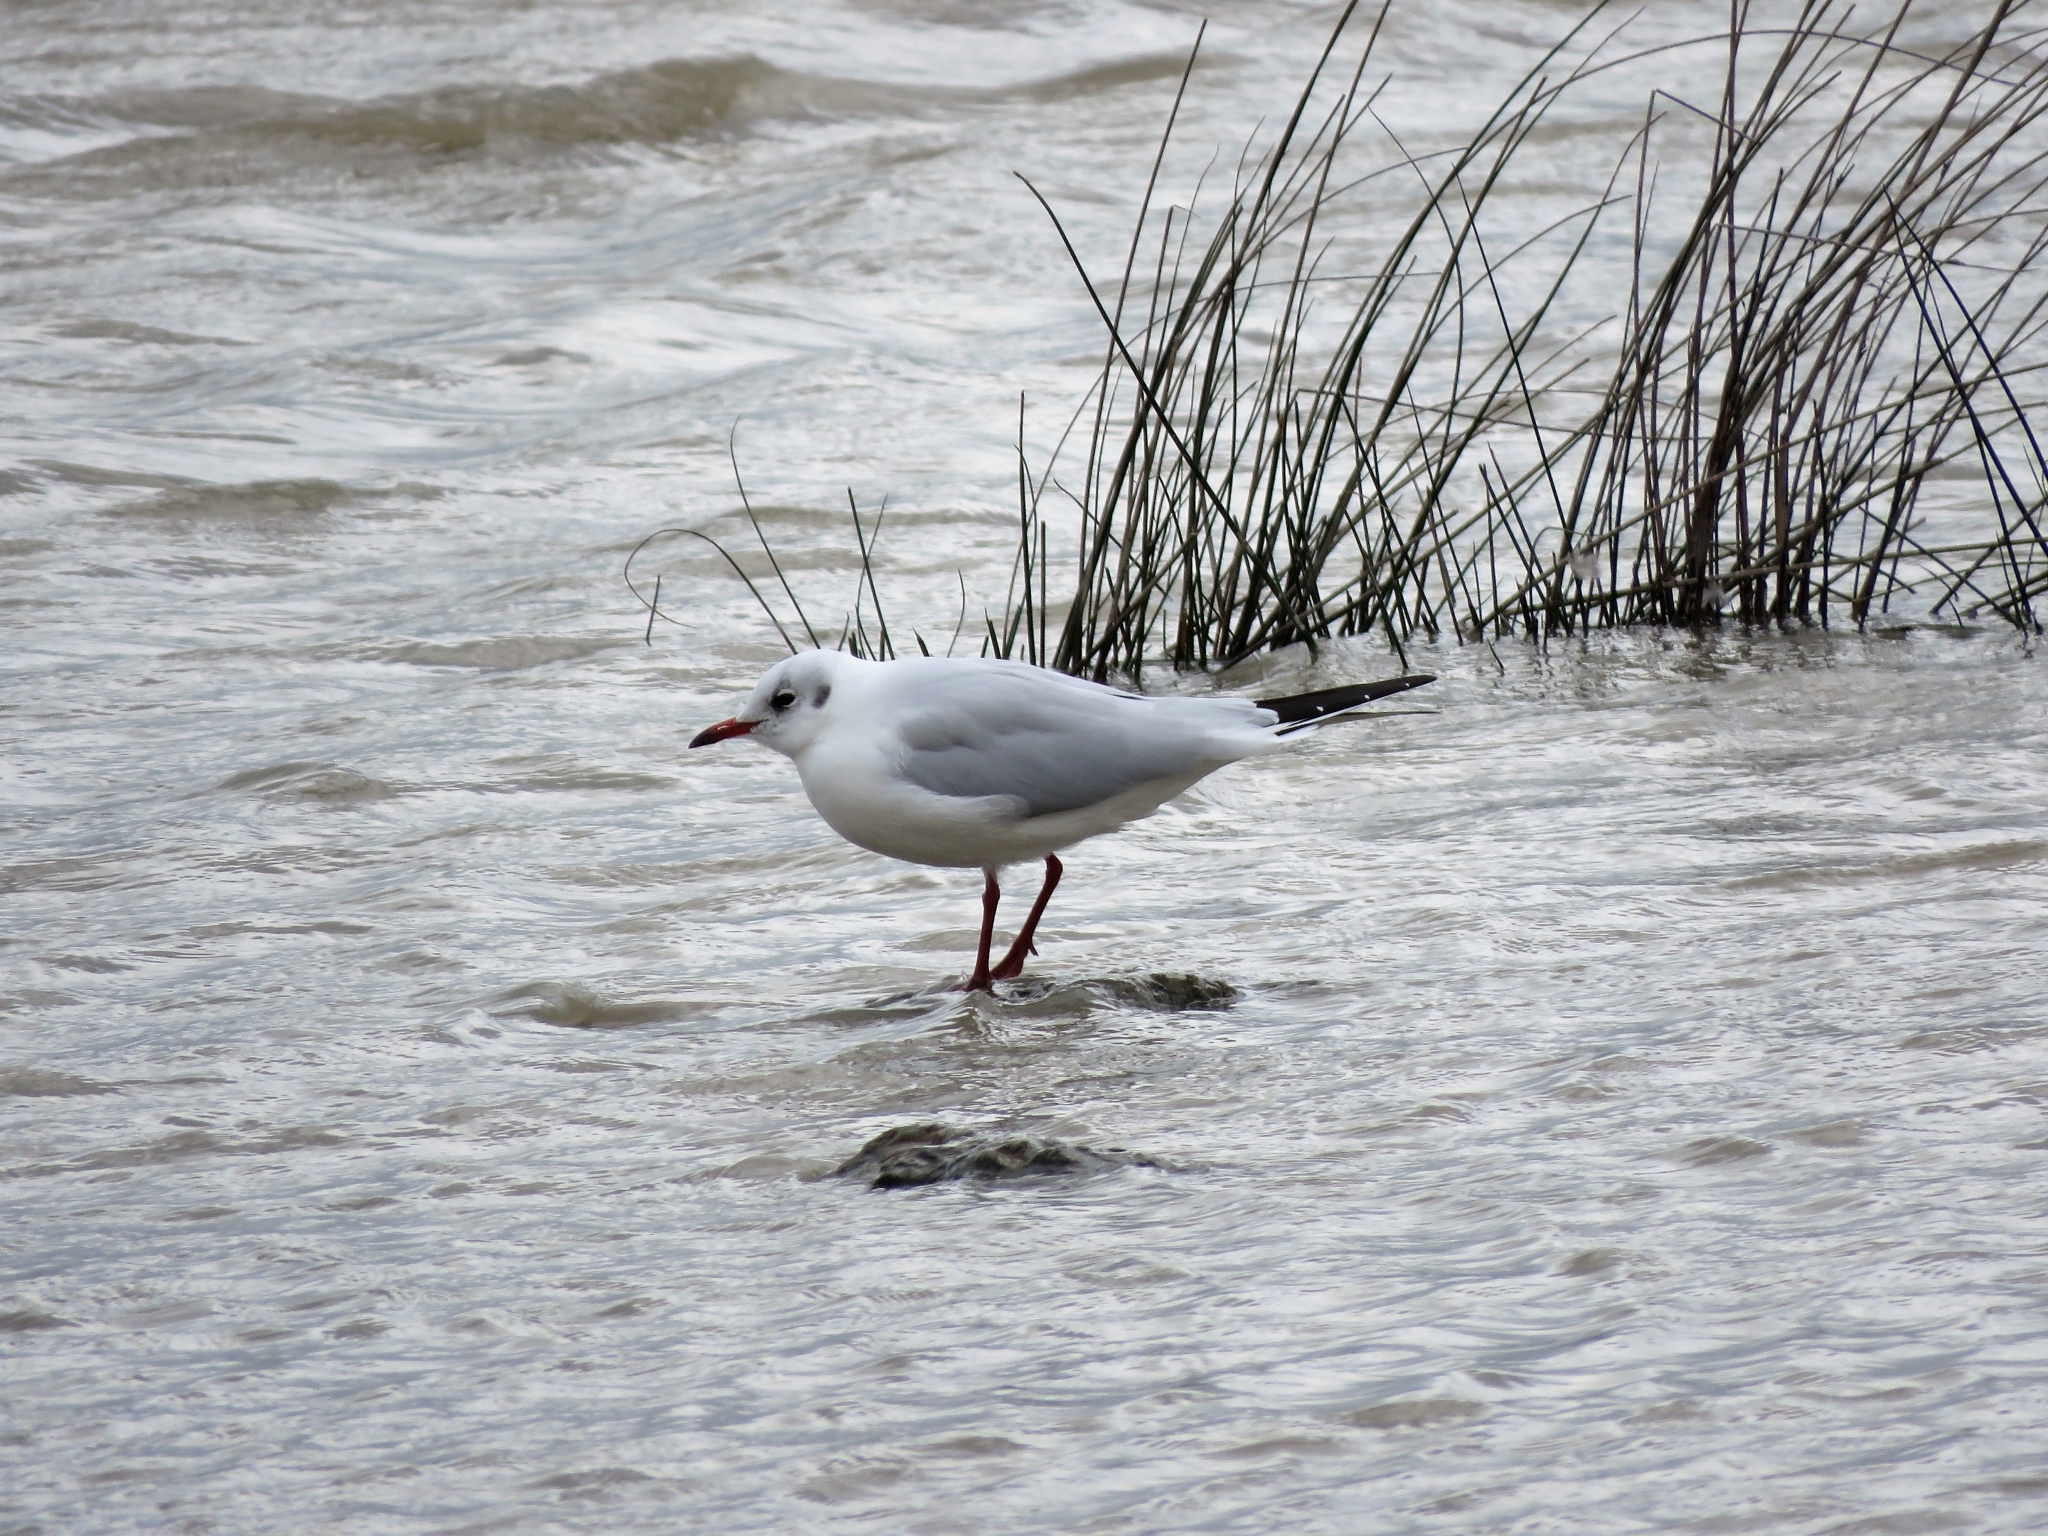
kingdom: Animalia
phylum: Chordata
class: Aves
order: Charadriiformes
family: Laridae
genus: Chroicocephalus
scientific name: Chroicocephalus ridibundus
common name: Black-headed gull
